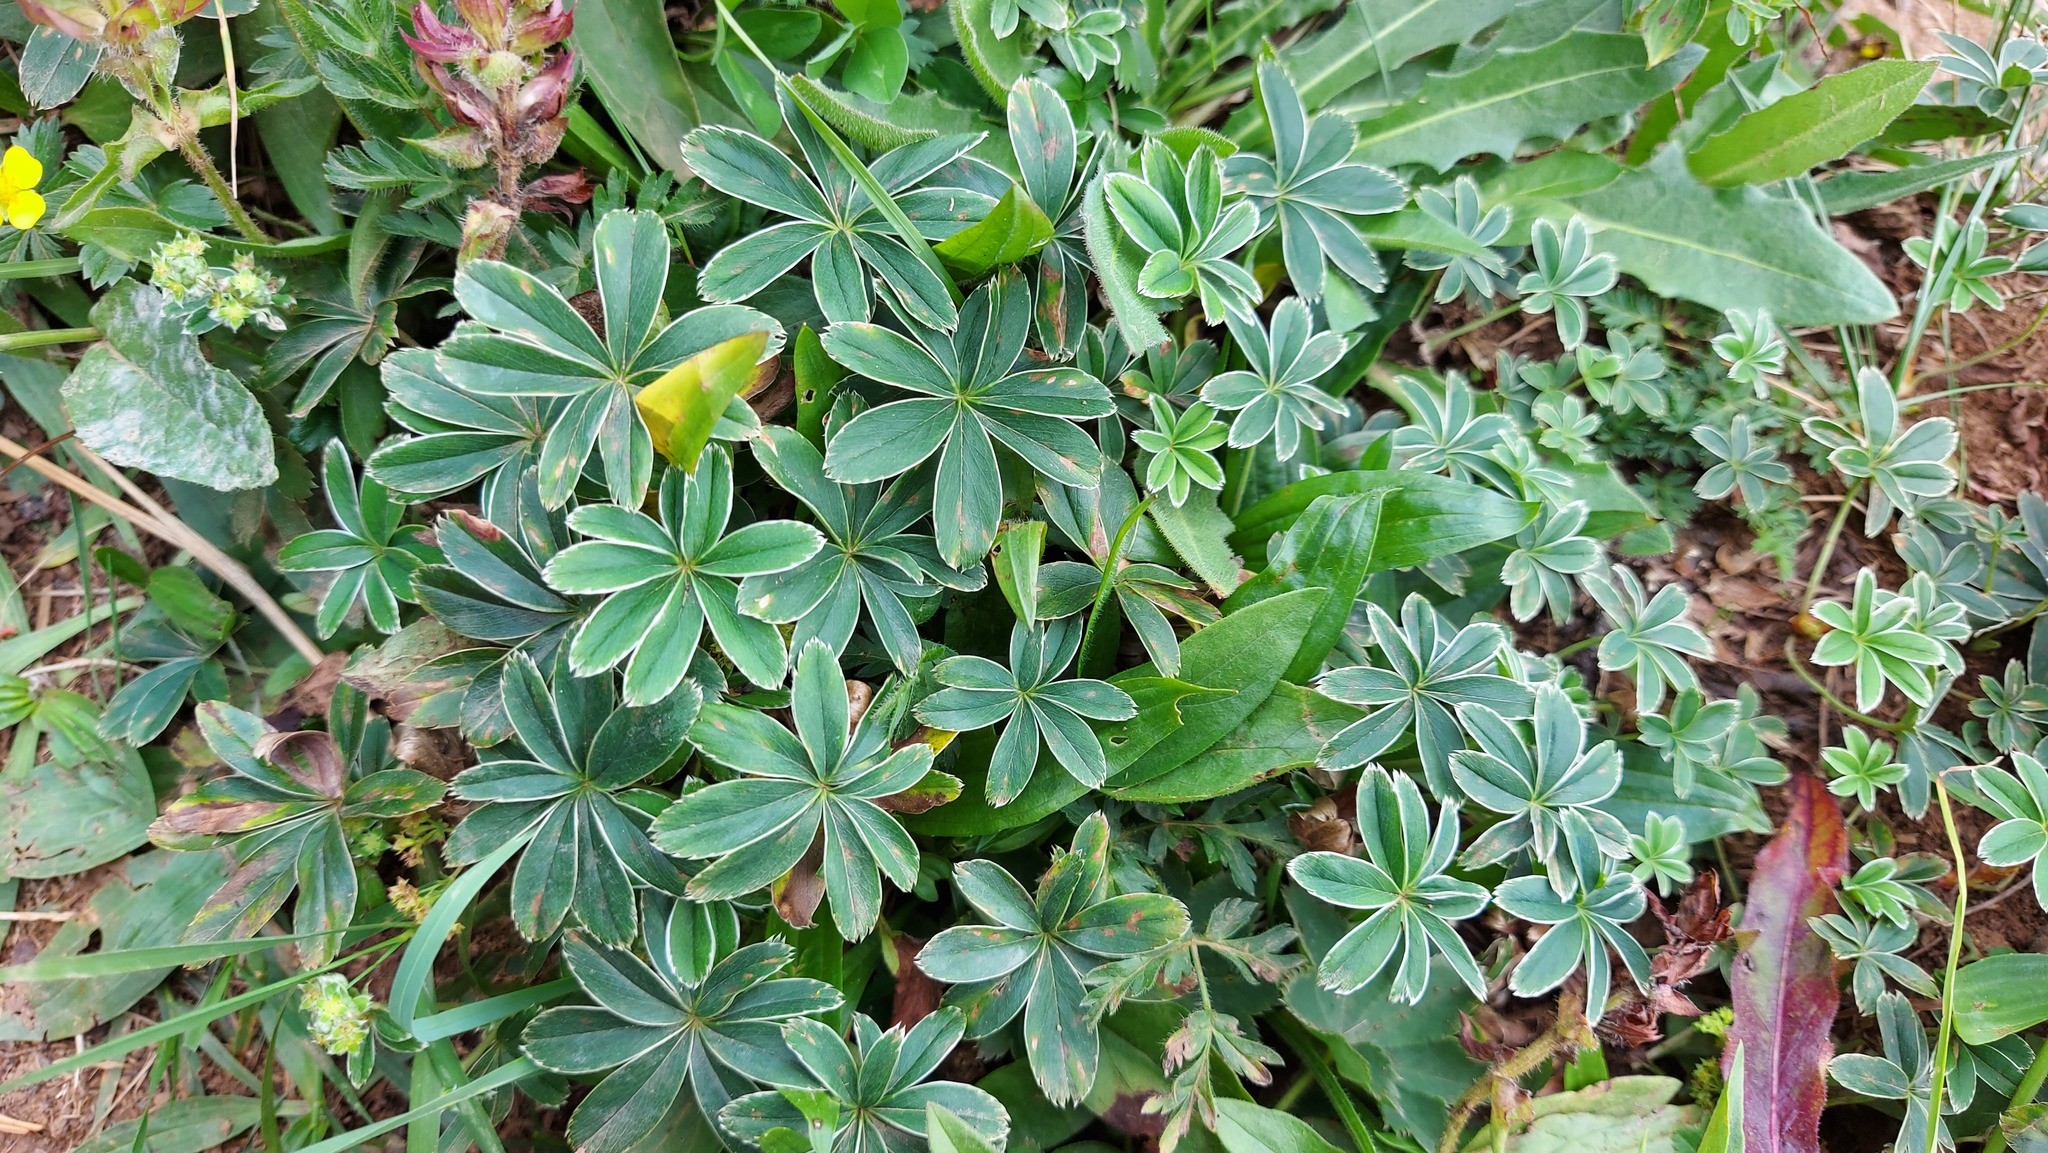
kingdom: Plantae
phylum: Tracheophyta
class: Magnoliopsida
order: Rosales
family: Rosaceae
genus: Alchemilla
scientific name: Alchemilla nitida
